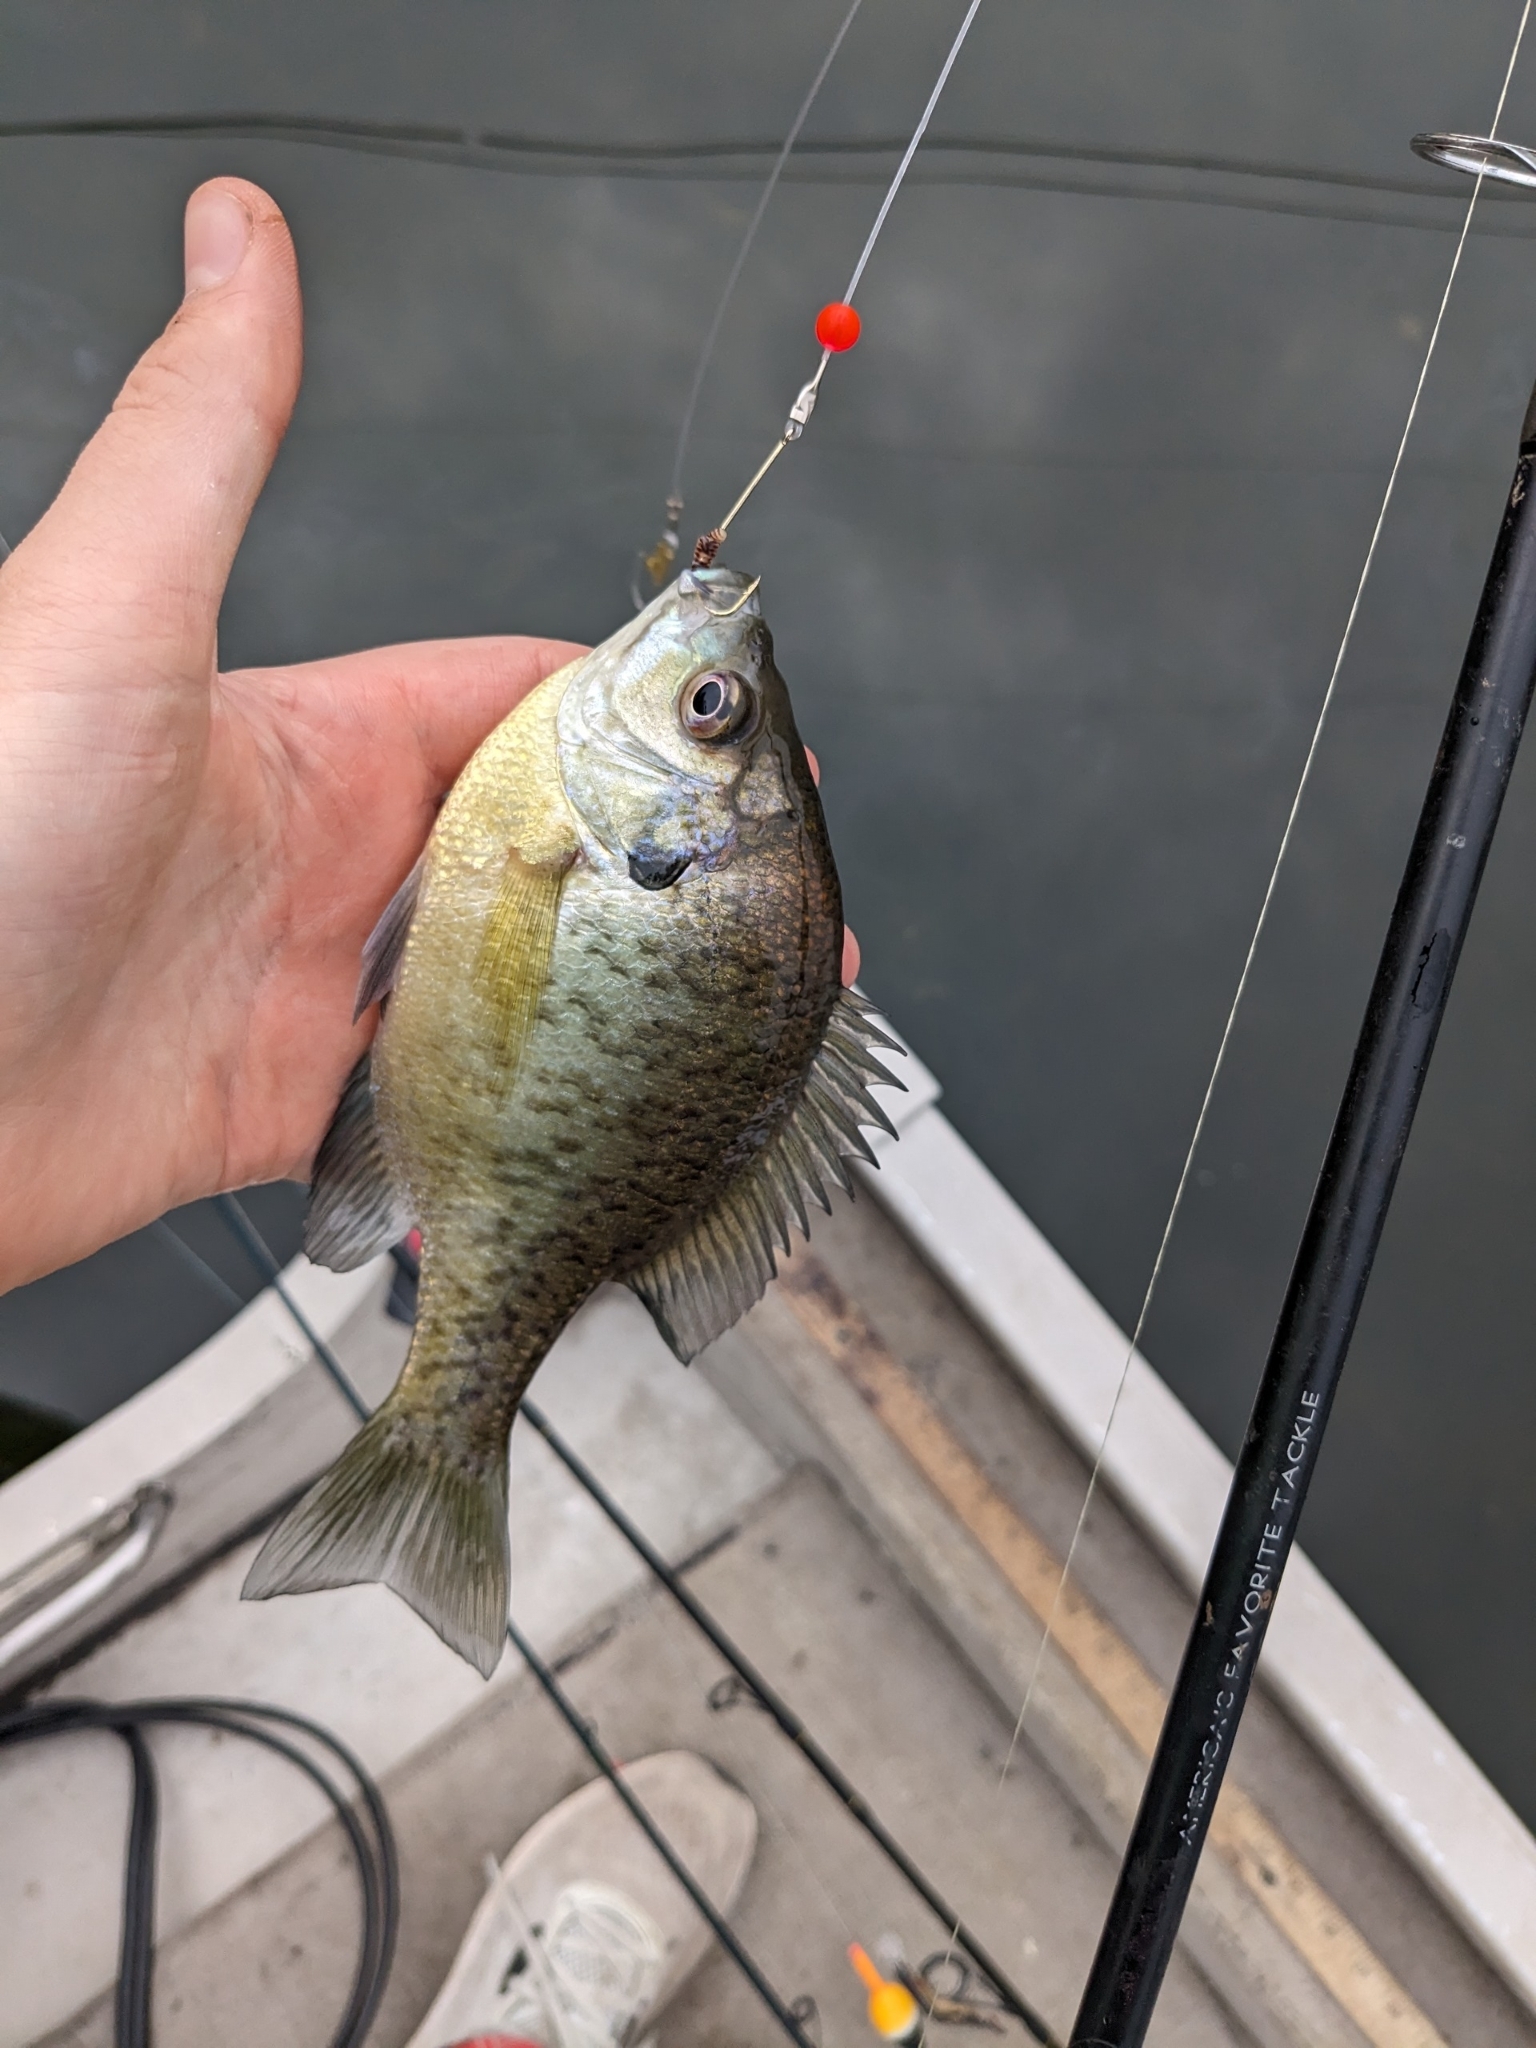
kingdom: Animalia
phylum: Chordata
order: Perciformes
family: Centrarchidae
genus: Lepomis
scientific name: Lepomis macrochirus
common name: Bluegill
